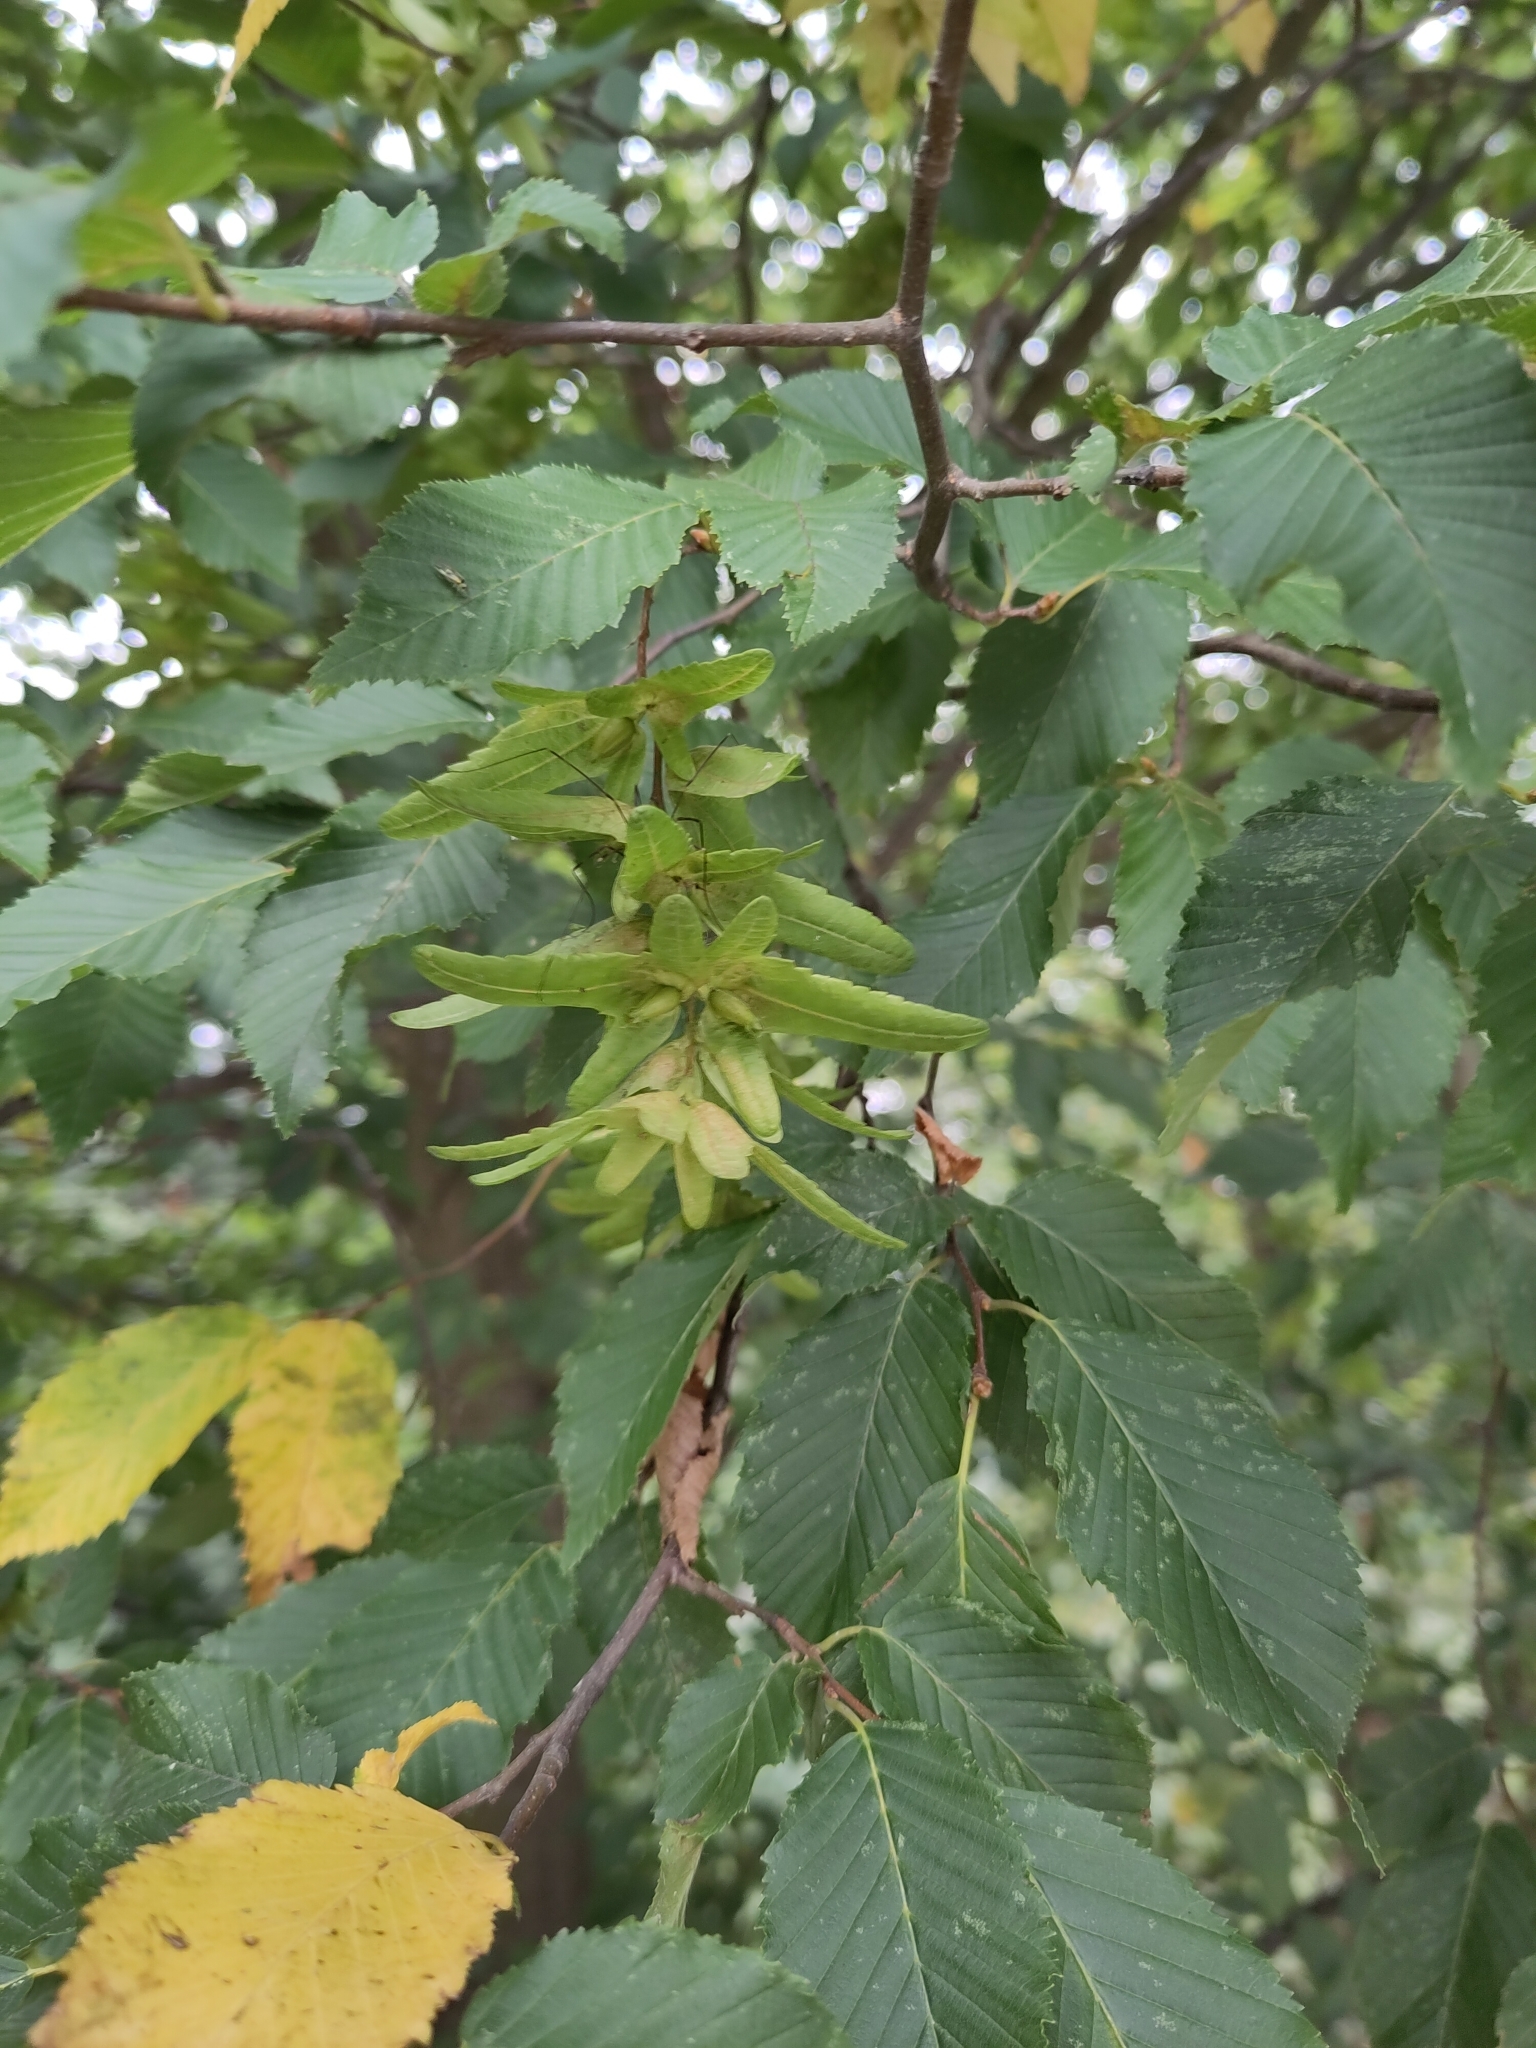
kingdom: Plantae
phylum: Tracheophyta
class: Magnoliopsida
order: Fagales
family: Betulaceae
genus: Carpinus
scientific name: Carpinus betulus
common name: Hornbeam
